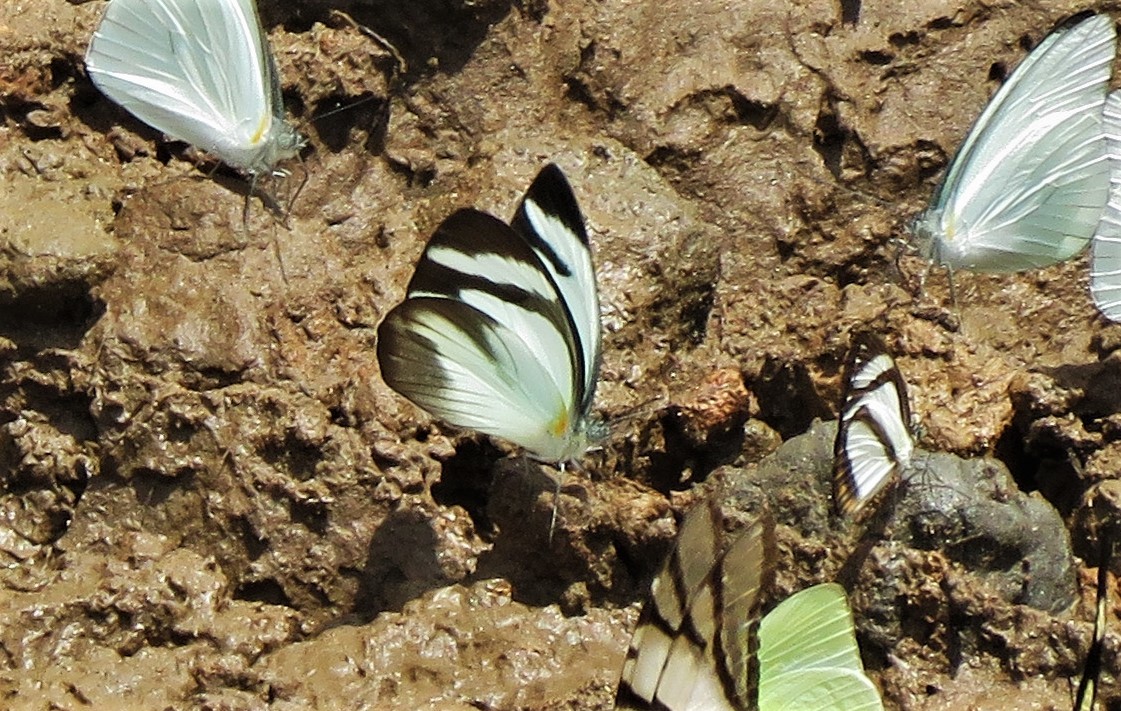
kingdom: Animalia
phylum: Arthropoda
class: Insecta
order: Lepidoptera
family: Pieridae
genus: Itaballia
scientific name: Itaballia demophile
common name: Cross-barred white
